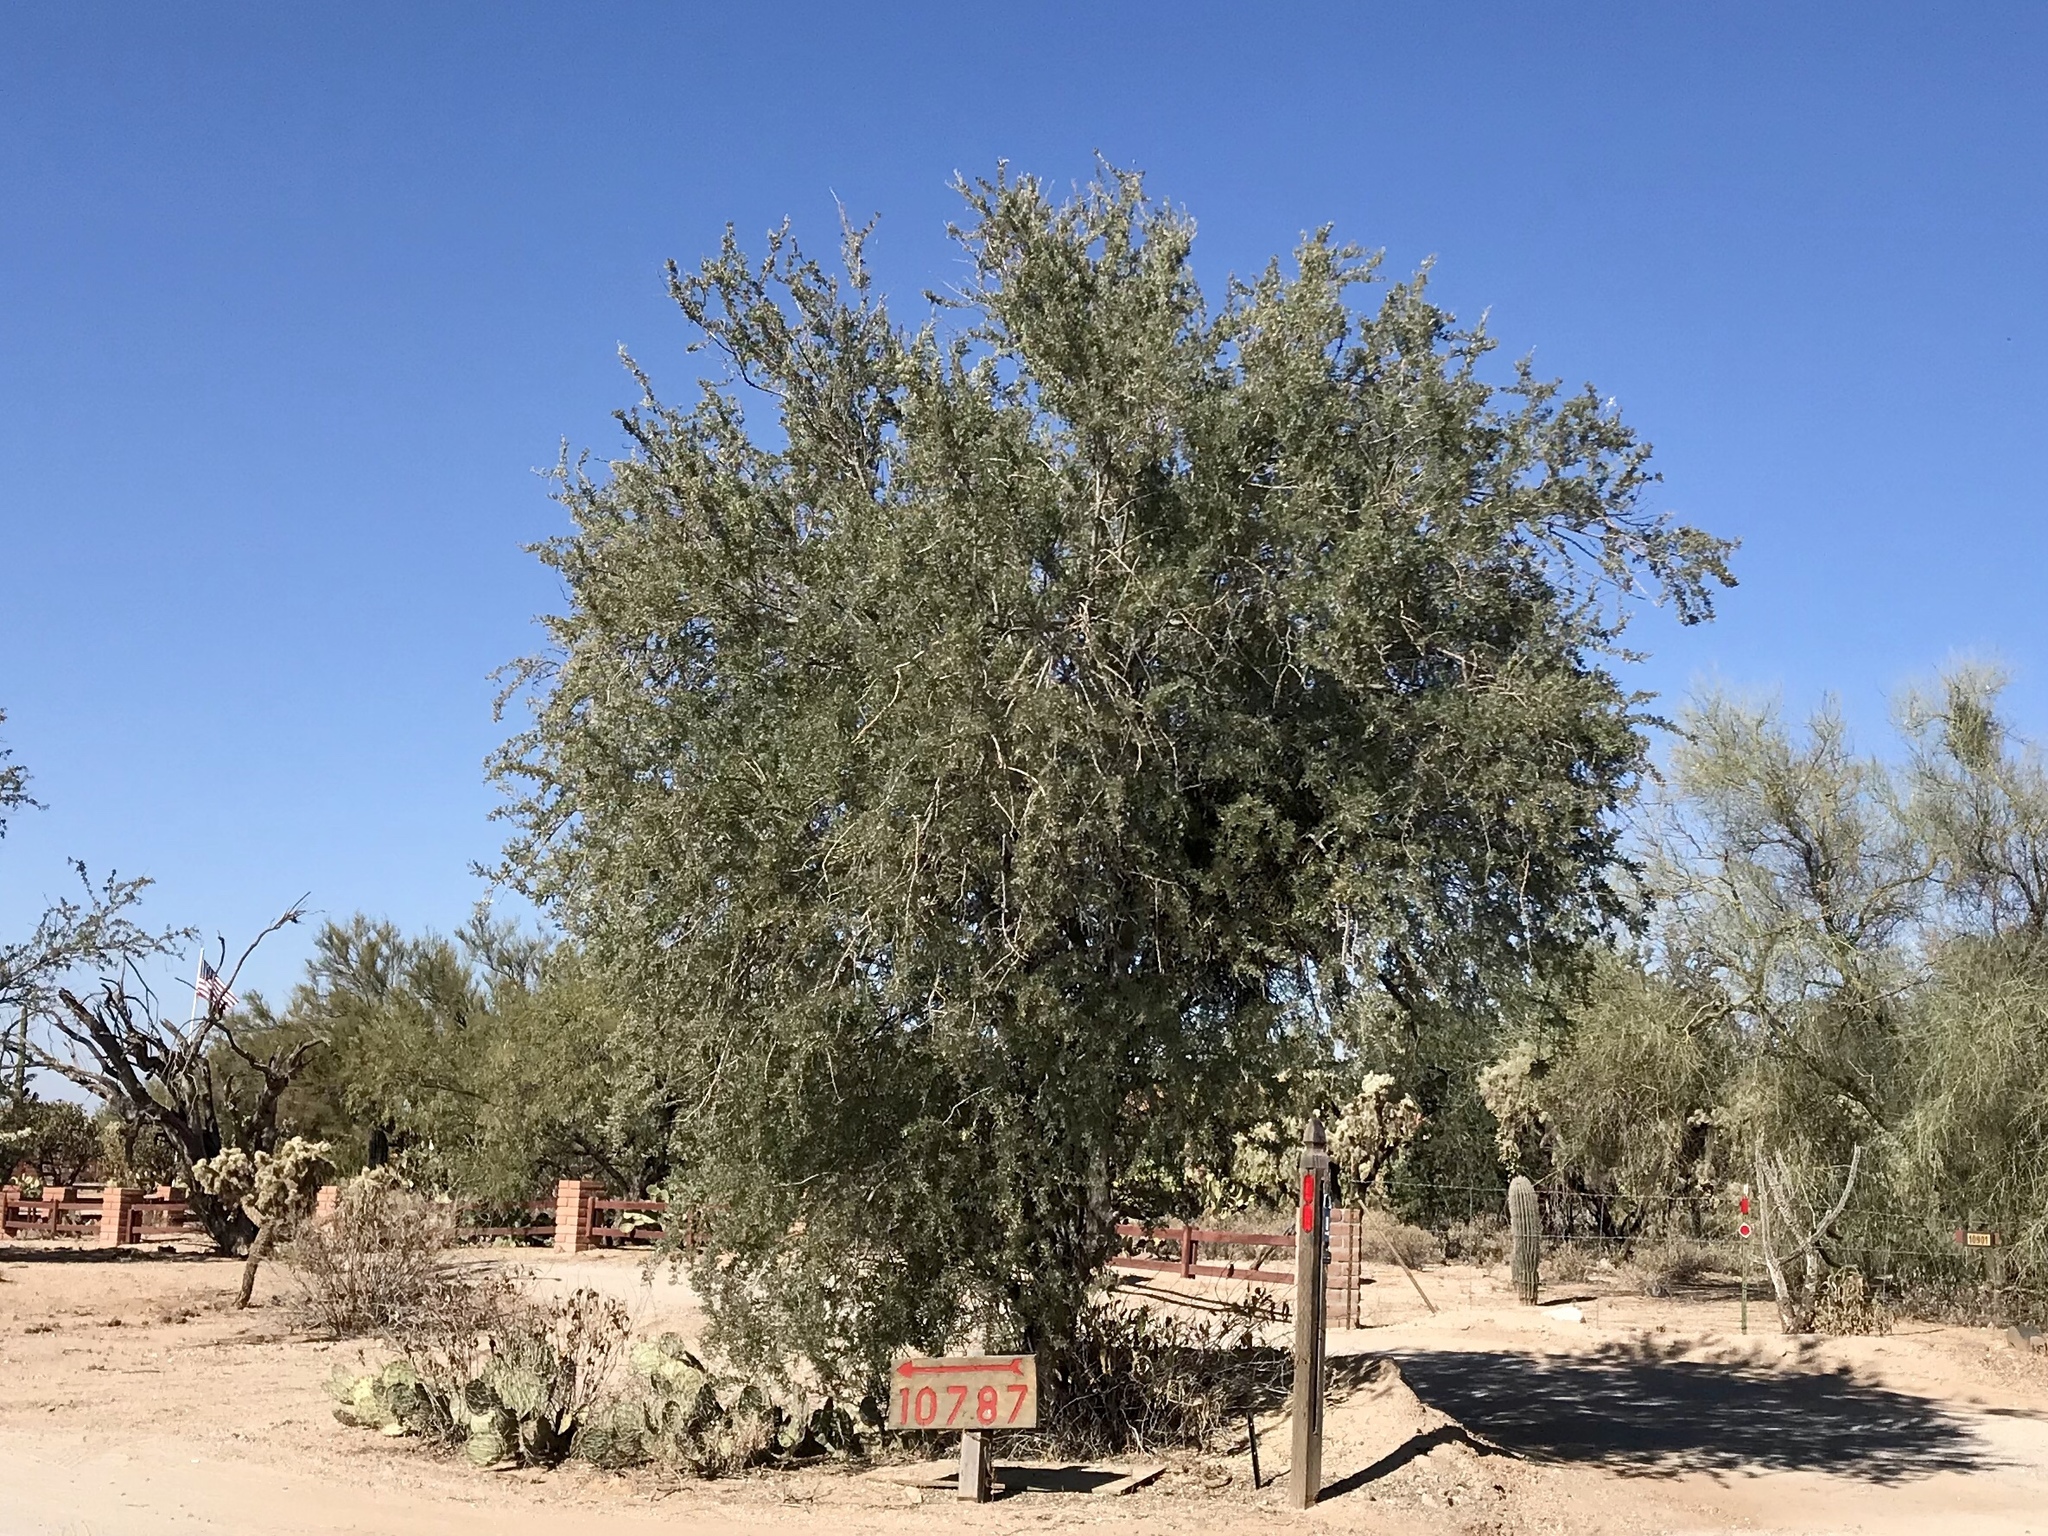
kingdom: Plantae
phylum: Tracheophyta
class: Magnoliopsida
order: Fabales
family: Fabaceae
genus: Olneya
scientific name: Olneya tesota
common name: Desert ironwood
